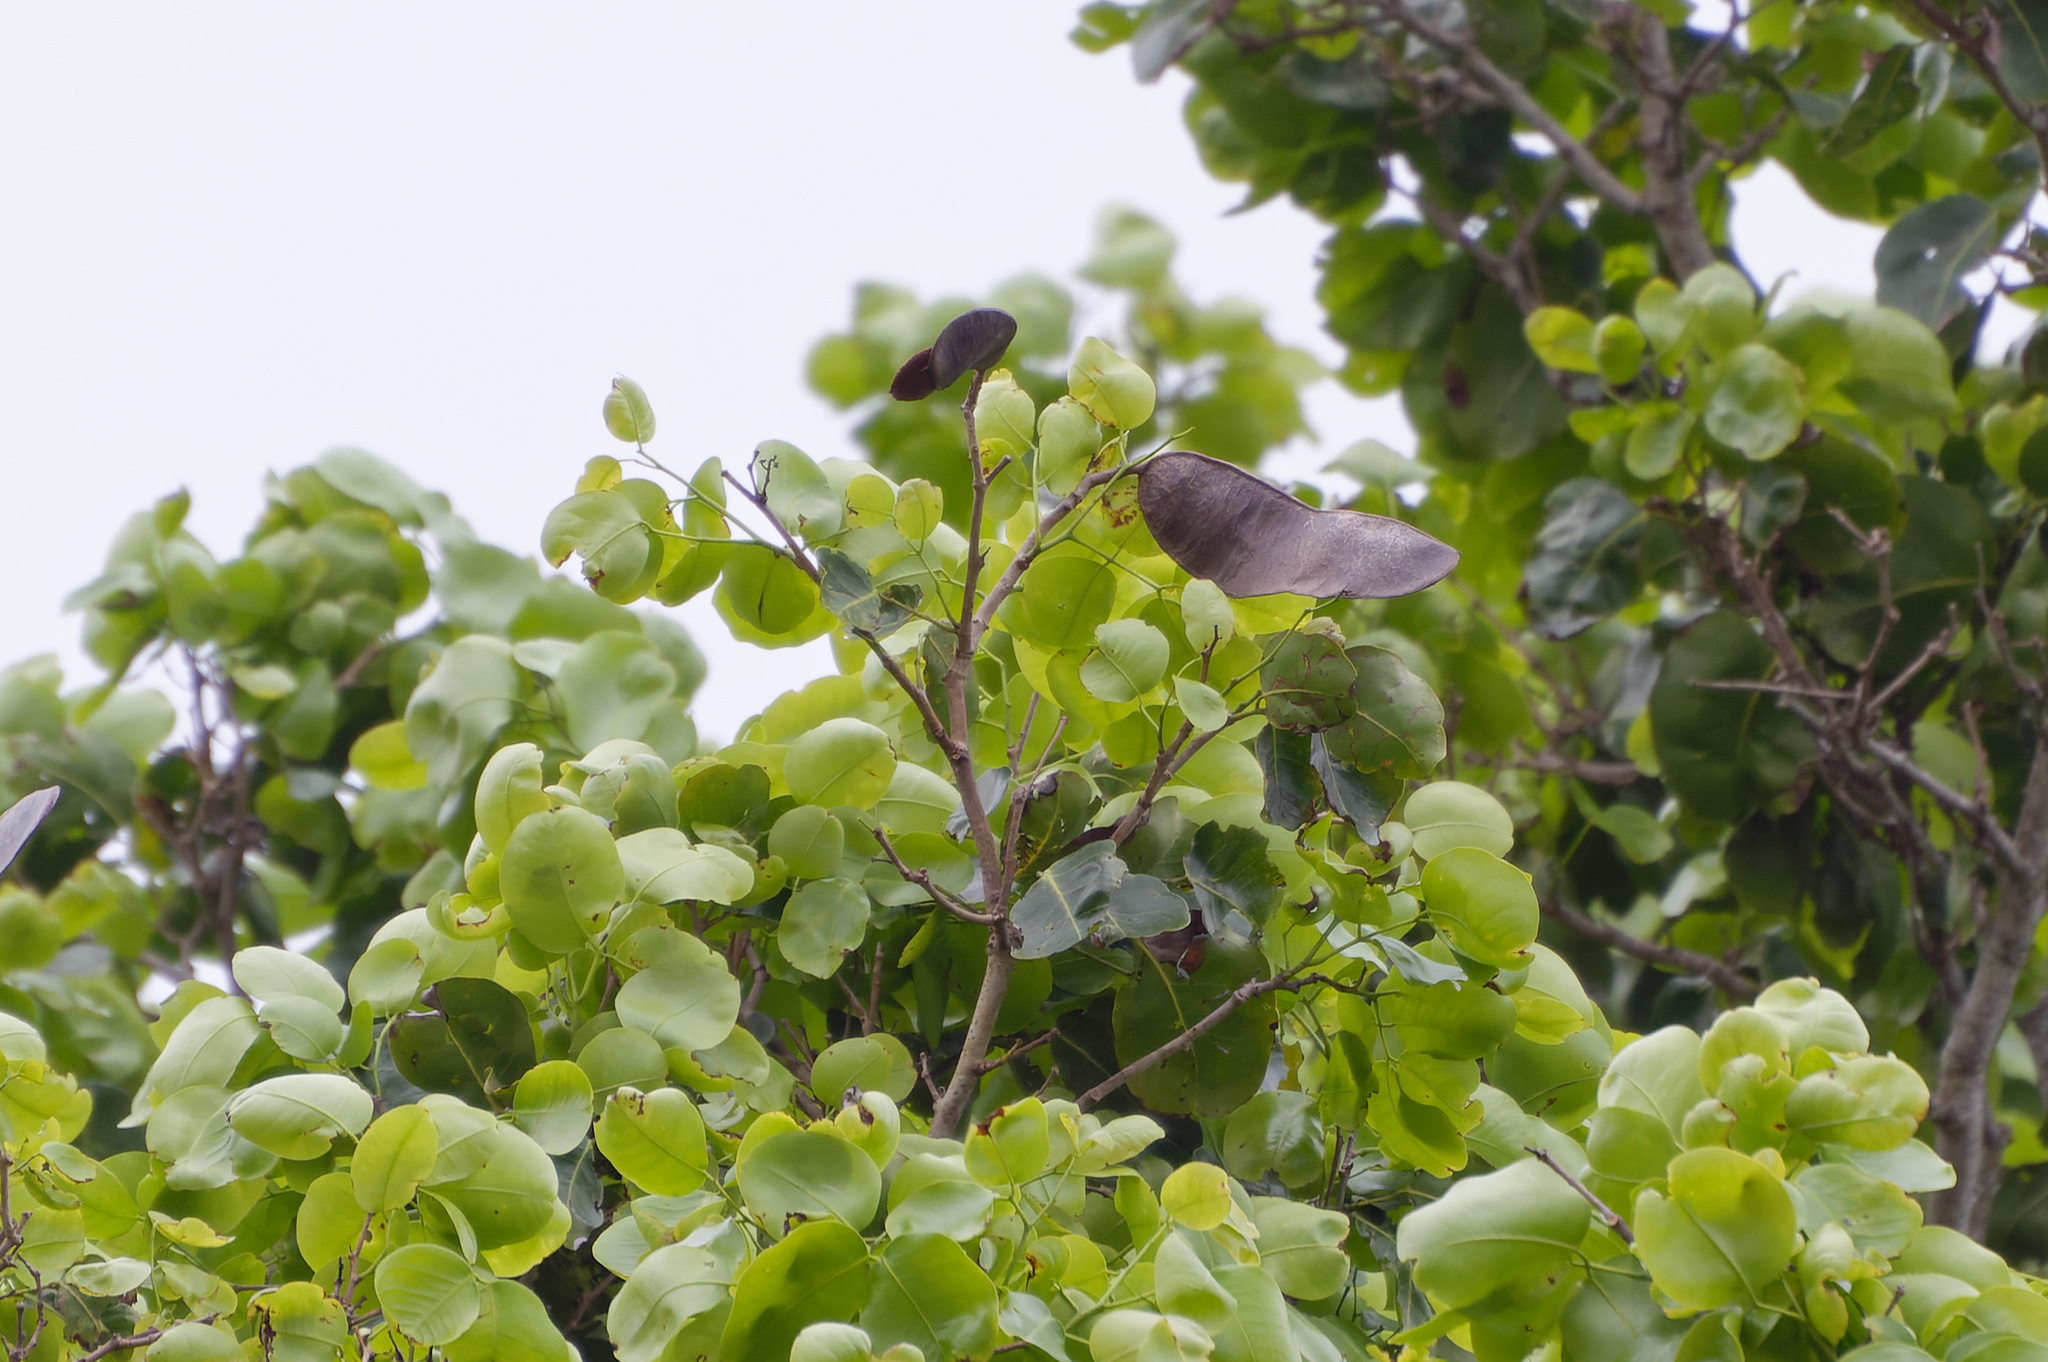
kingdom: Plantae
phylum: Tracheophyta
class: Magnoliopsida
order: Fabales
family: Fabaceae
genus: Intsia
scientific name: Intsia bijuga
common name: Moluccan ironwood
